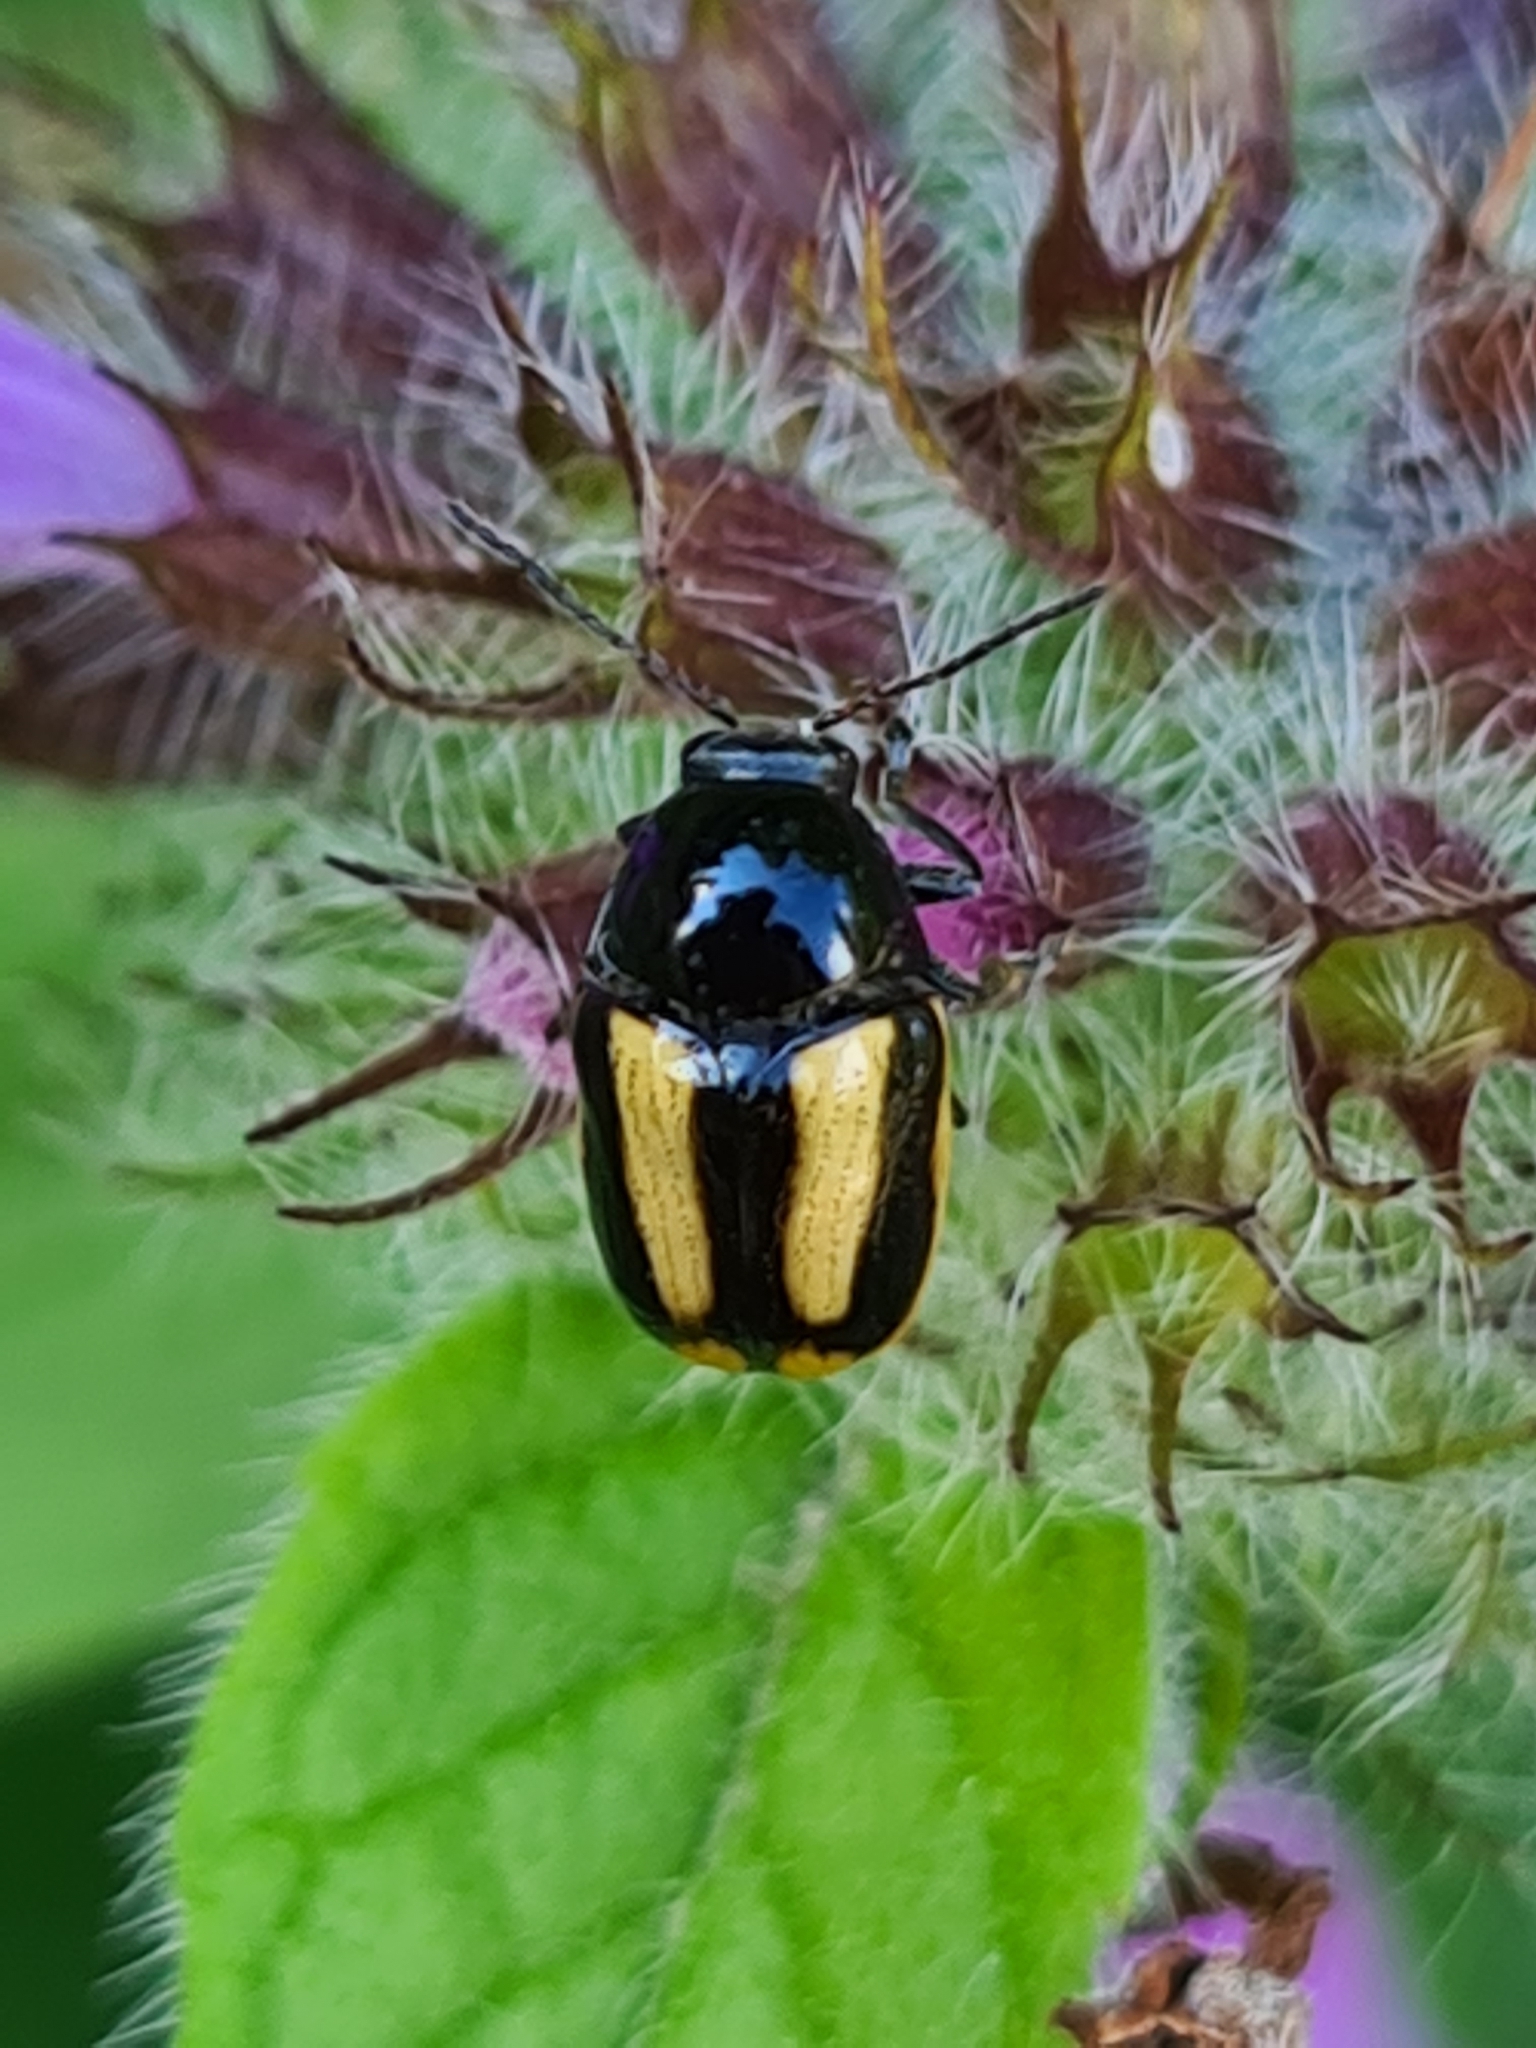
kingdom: Animalia
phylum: Arthropoda
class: Insecta
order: Coleoptera
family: Chrysomelidae
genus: Acalymma
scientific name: Acalymma vittatum
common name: Striped cucumber beetle
